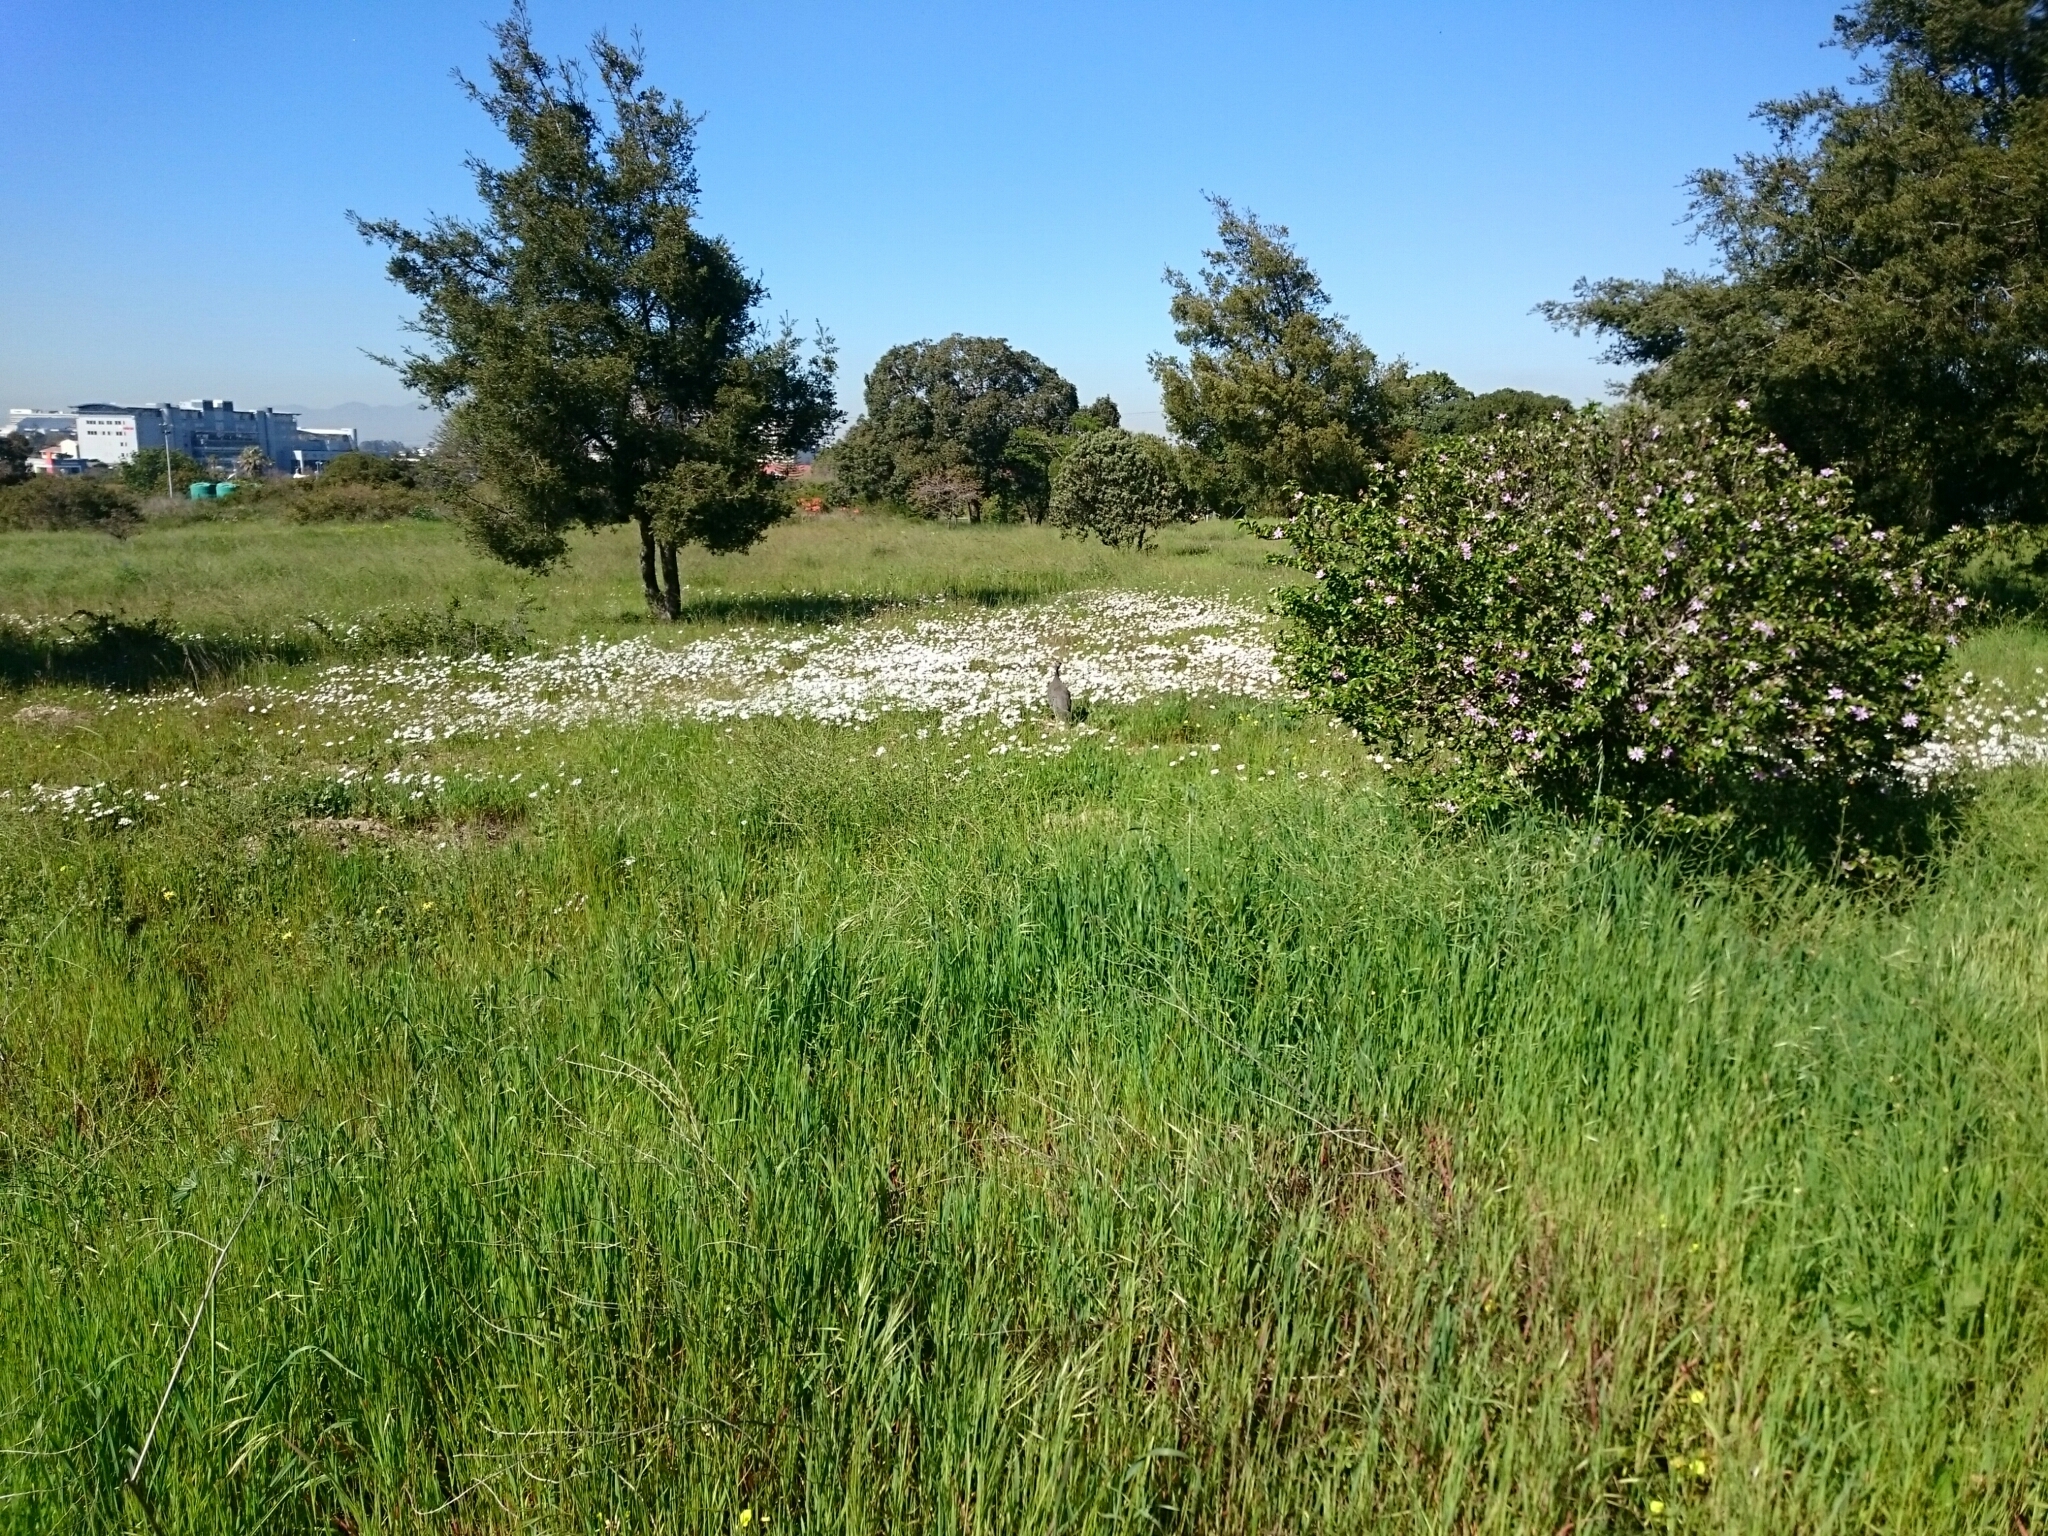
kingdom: Animalia
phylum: Chordata
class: Aves
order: Galliformes
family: Numididae
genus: Numida
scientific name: Numida meleagris
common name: Helmeted guineafowl
